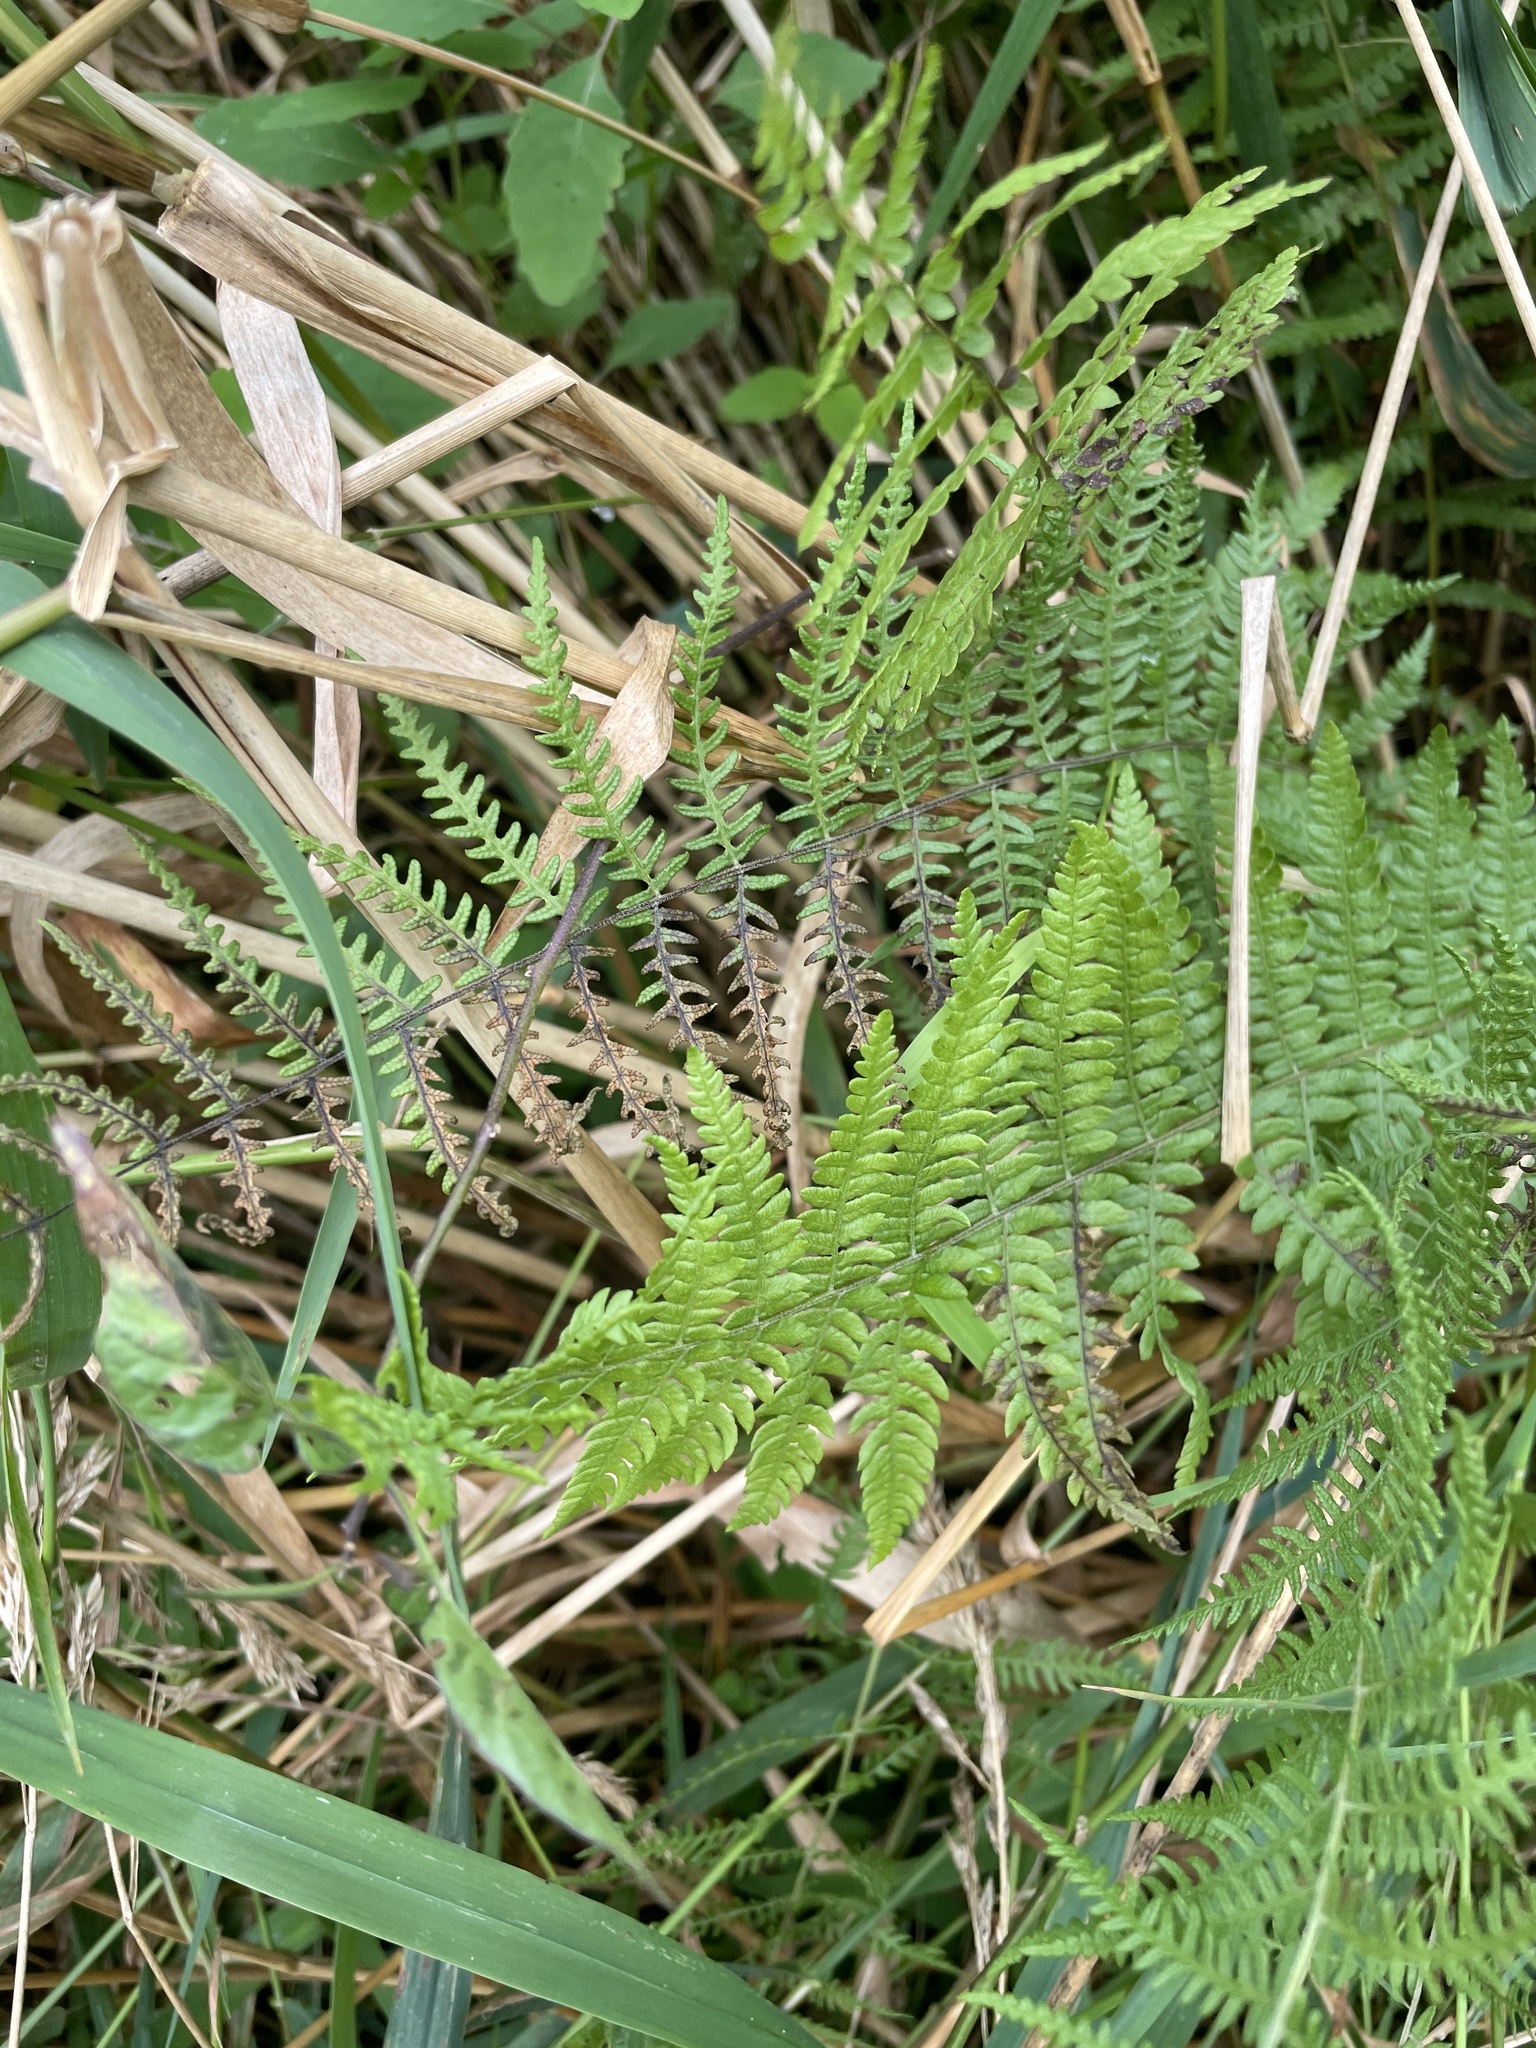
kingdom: Plantae
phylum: Tracheophyta
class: Polypodiopsida
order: Polypodiales
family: Thelypteridaceae
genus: Thelypteris
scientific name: Thelypteris palustris
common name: Marsh fern
